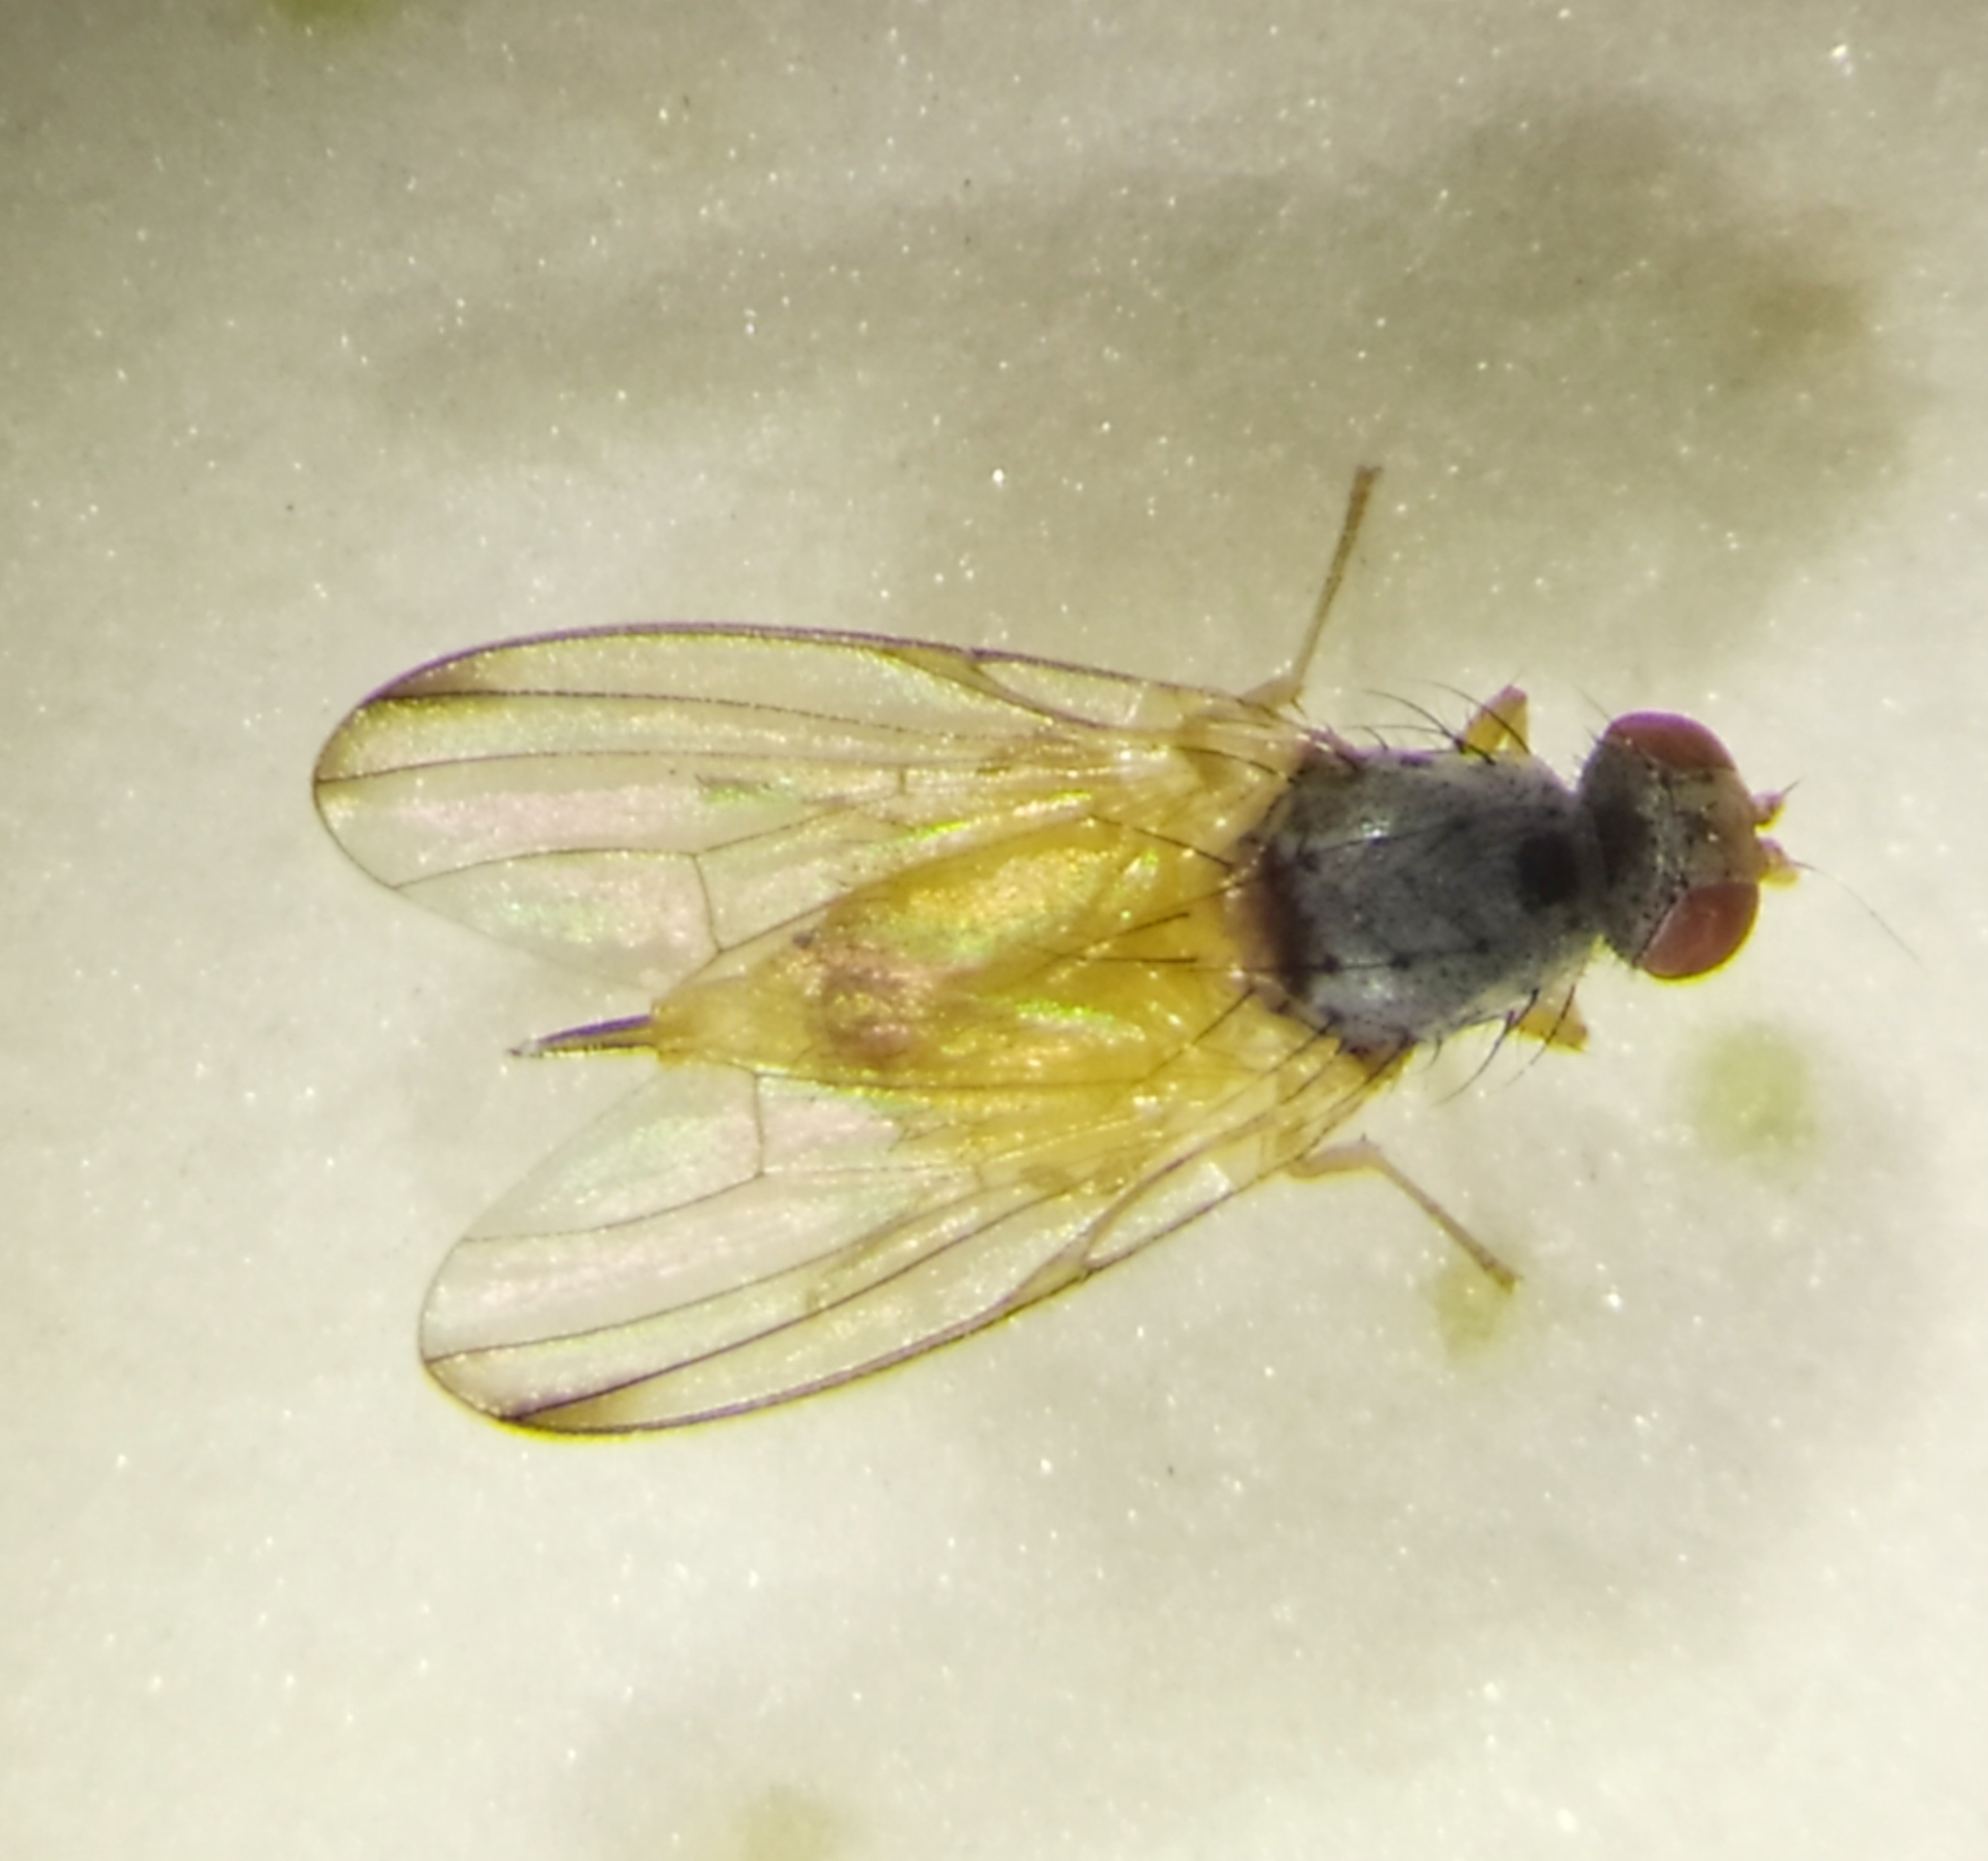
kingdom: Animalia
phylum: Arthropoda
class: Insecta
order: Diptera
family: Pallopteridae
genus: Palloptera
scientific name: Palloptera ustulata
